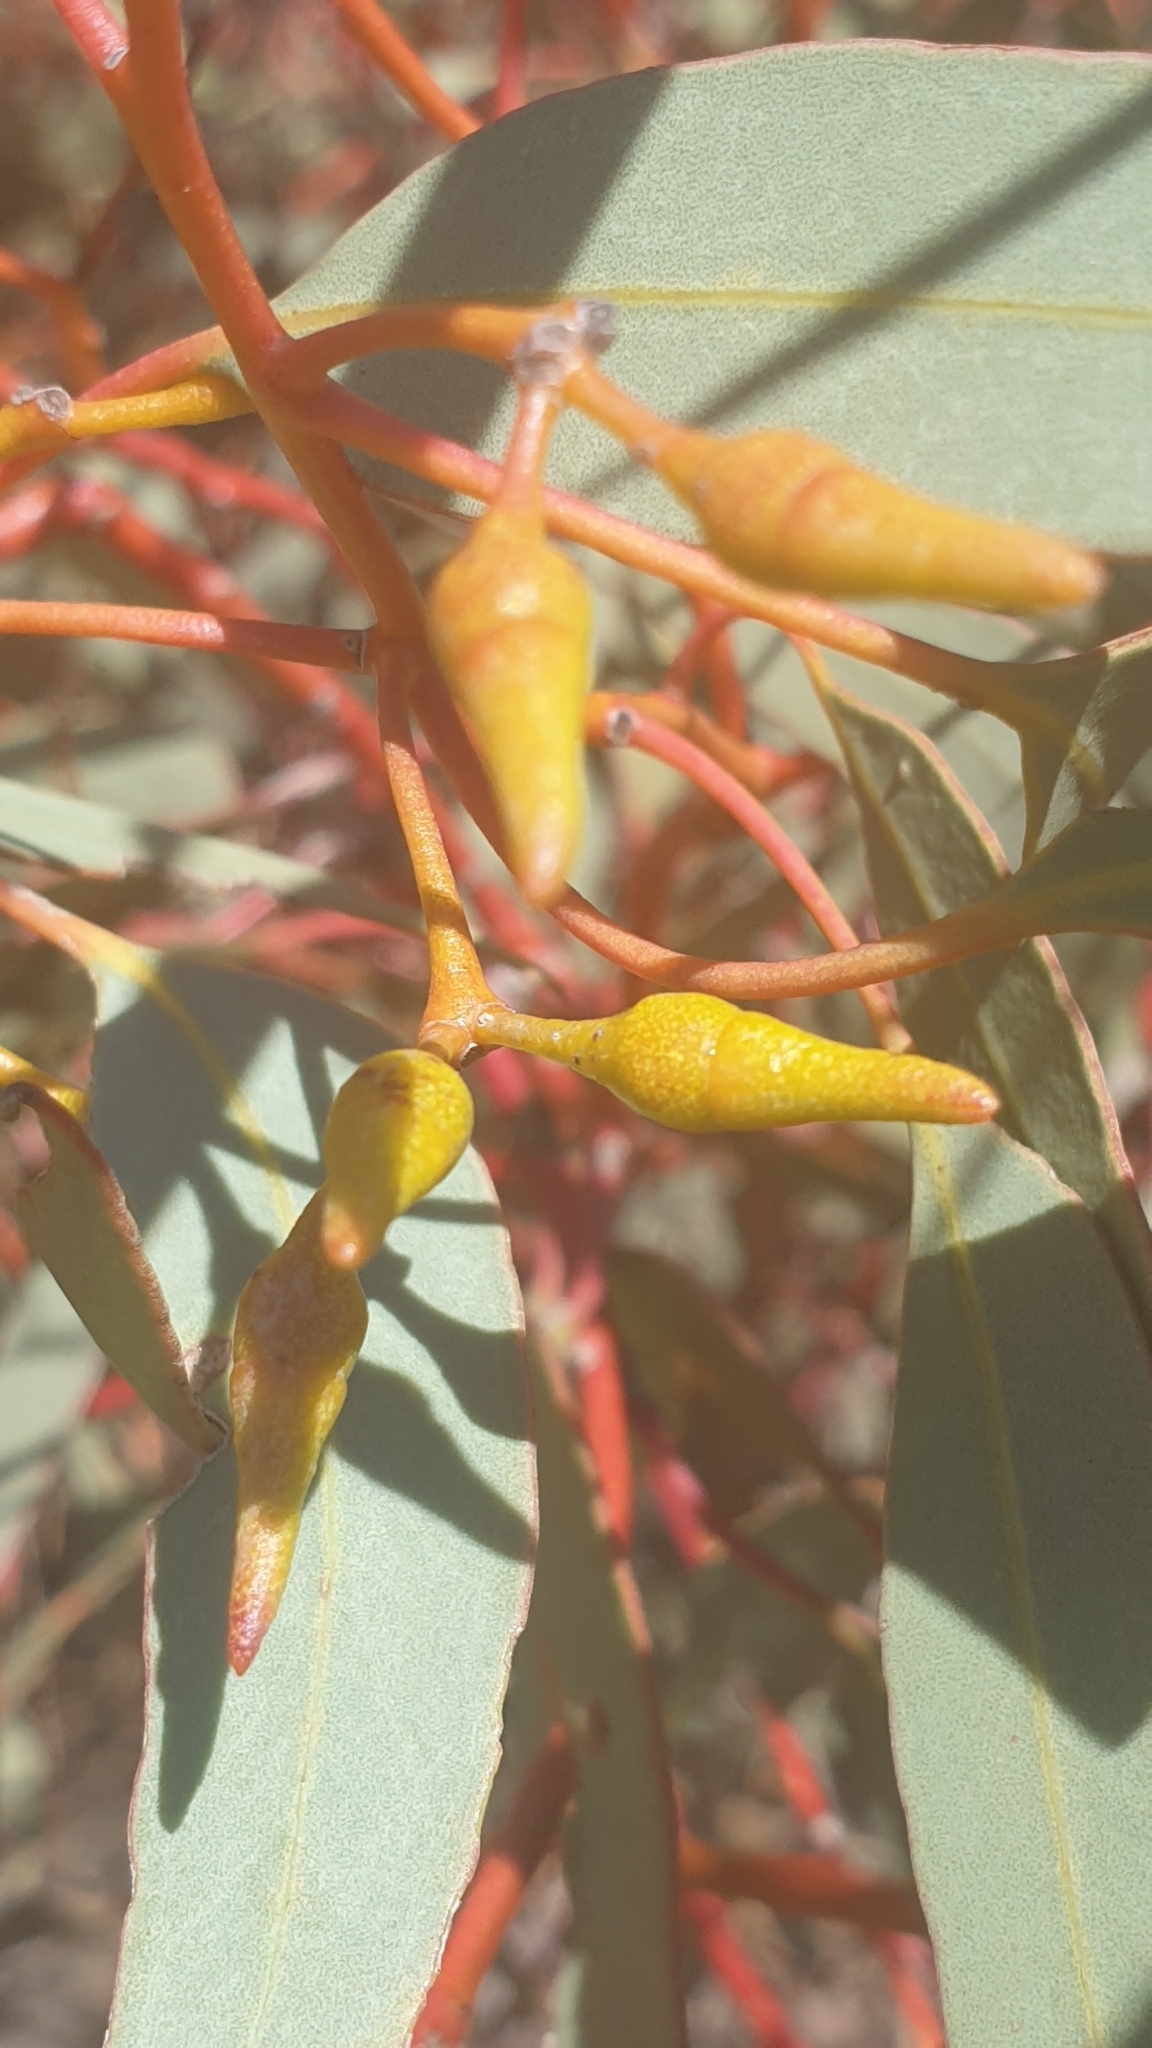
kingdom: Plantae
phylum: Tracheophyta
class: Magnoliopsida
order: Myrtales
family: Myrtaceae
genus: Eucalyptus
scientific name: Eucalyptus socialis
